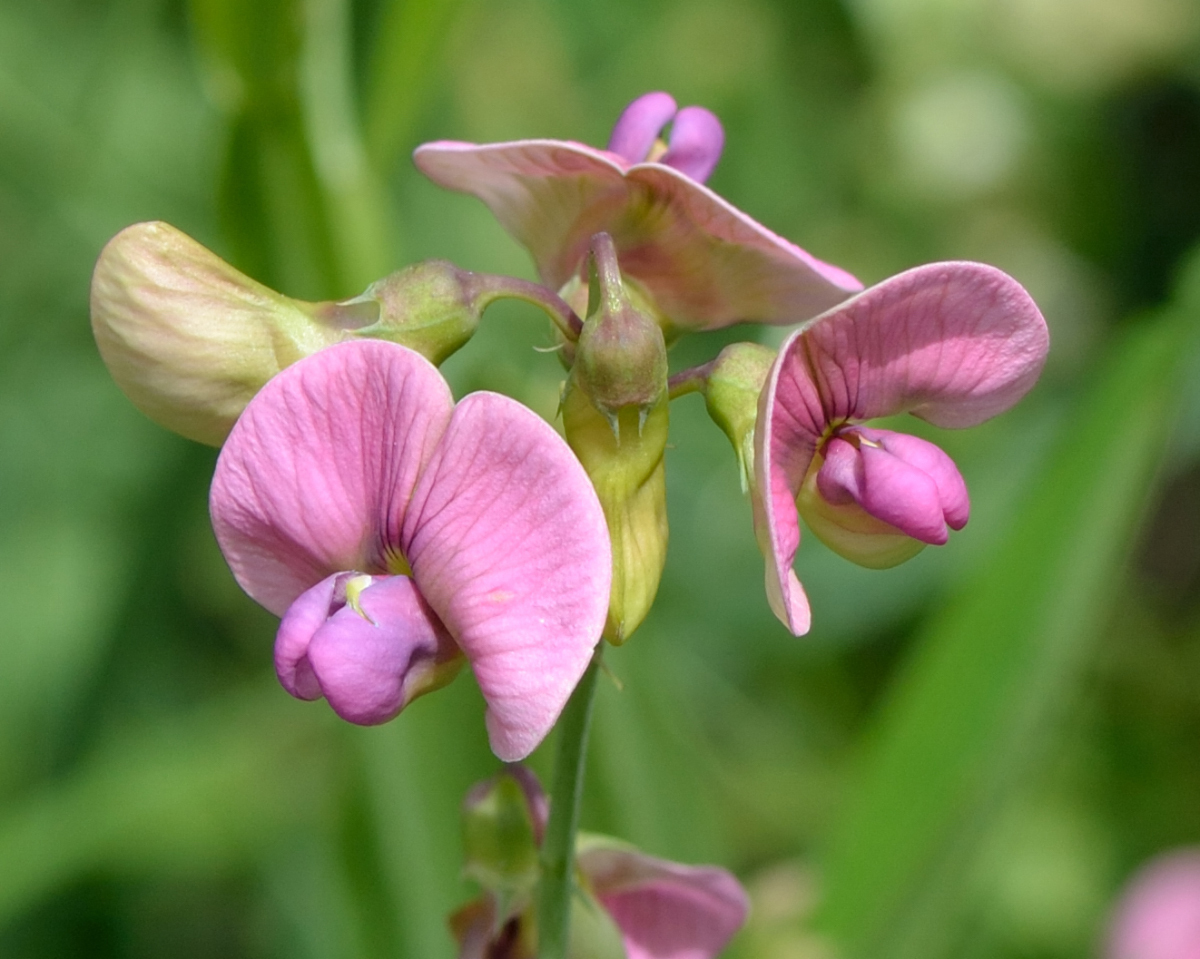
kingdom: Plantae
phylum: Tracheophyta
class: Magnoliopsida
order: Fabales
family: Fabaceae
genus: Lathyrus
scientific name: Lathyrus sylvestris
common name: Flat pea
